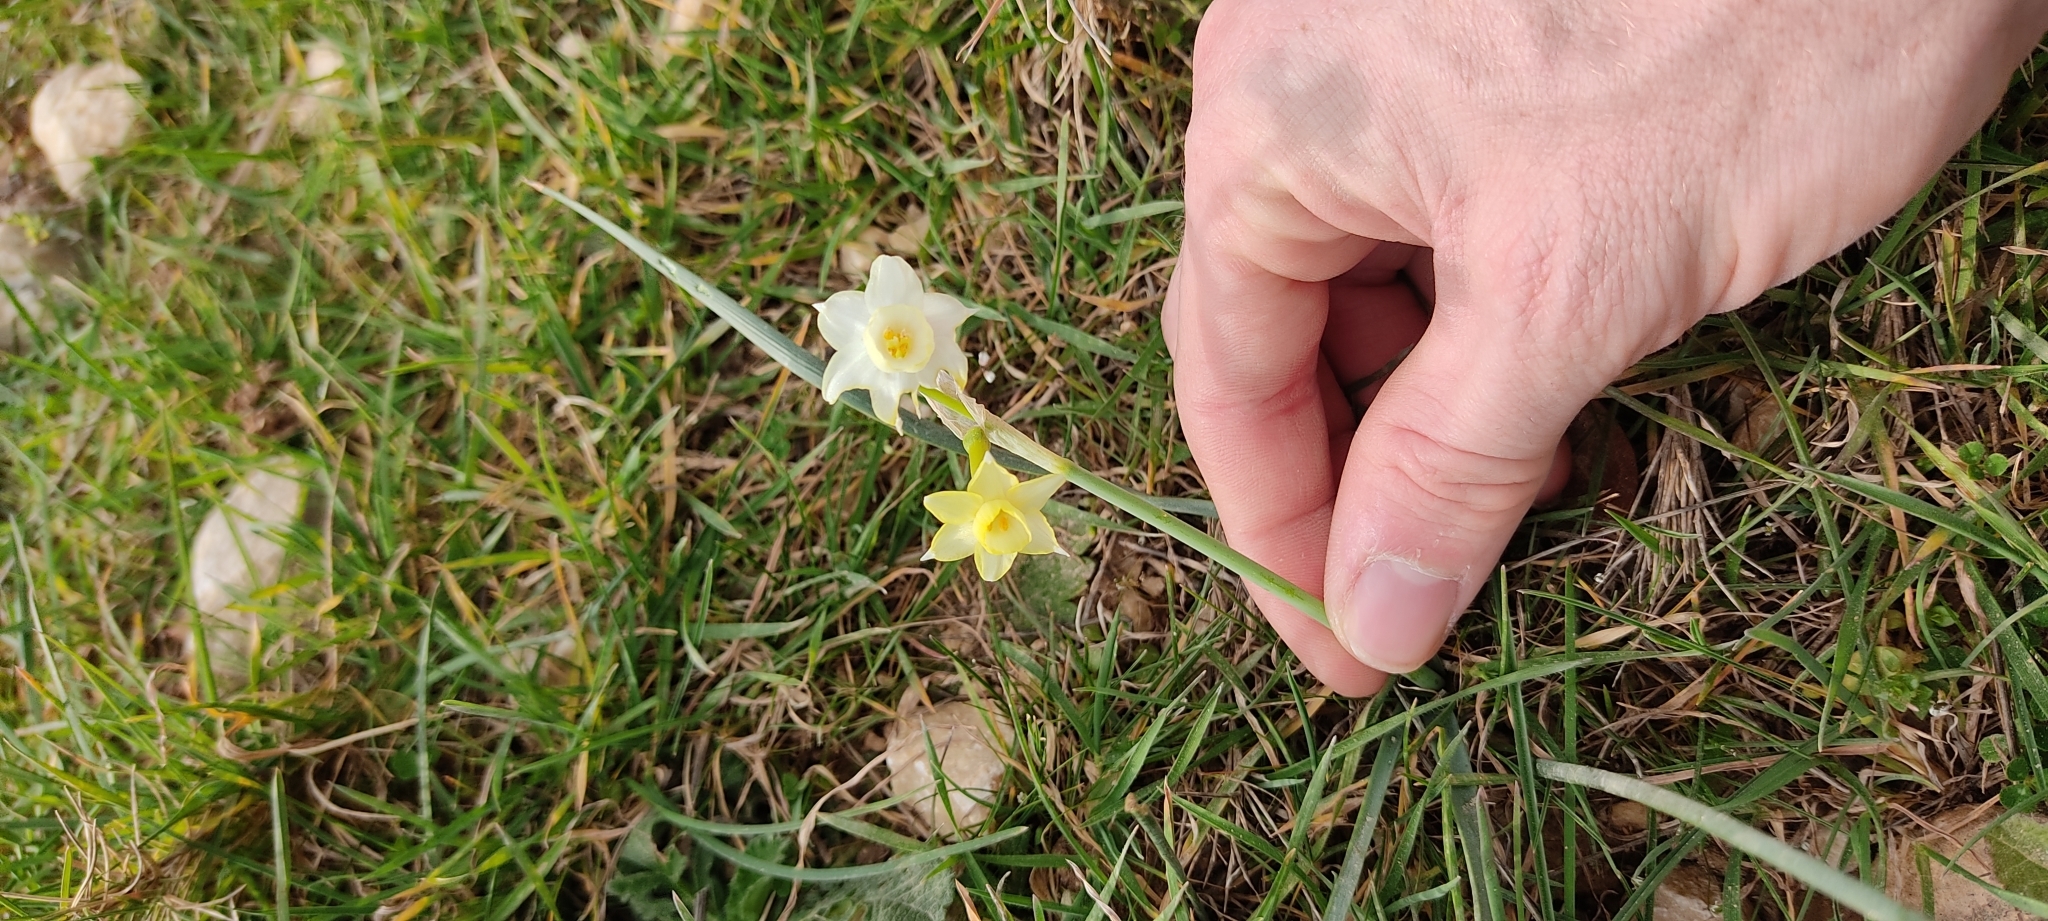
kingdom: Plantae
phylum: Tracheophyta
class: Liliopsida
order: Asparagales
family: Amaryllidaceae
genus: Narcissus
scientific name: Narcissus dubius
